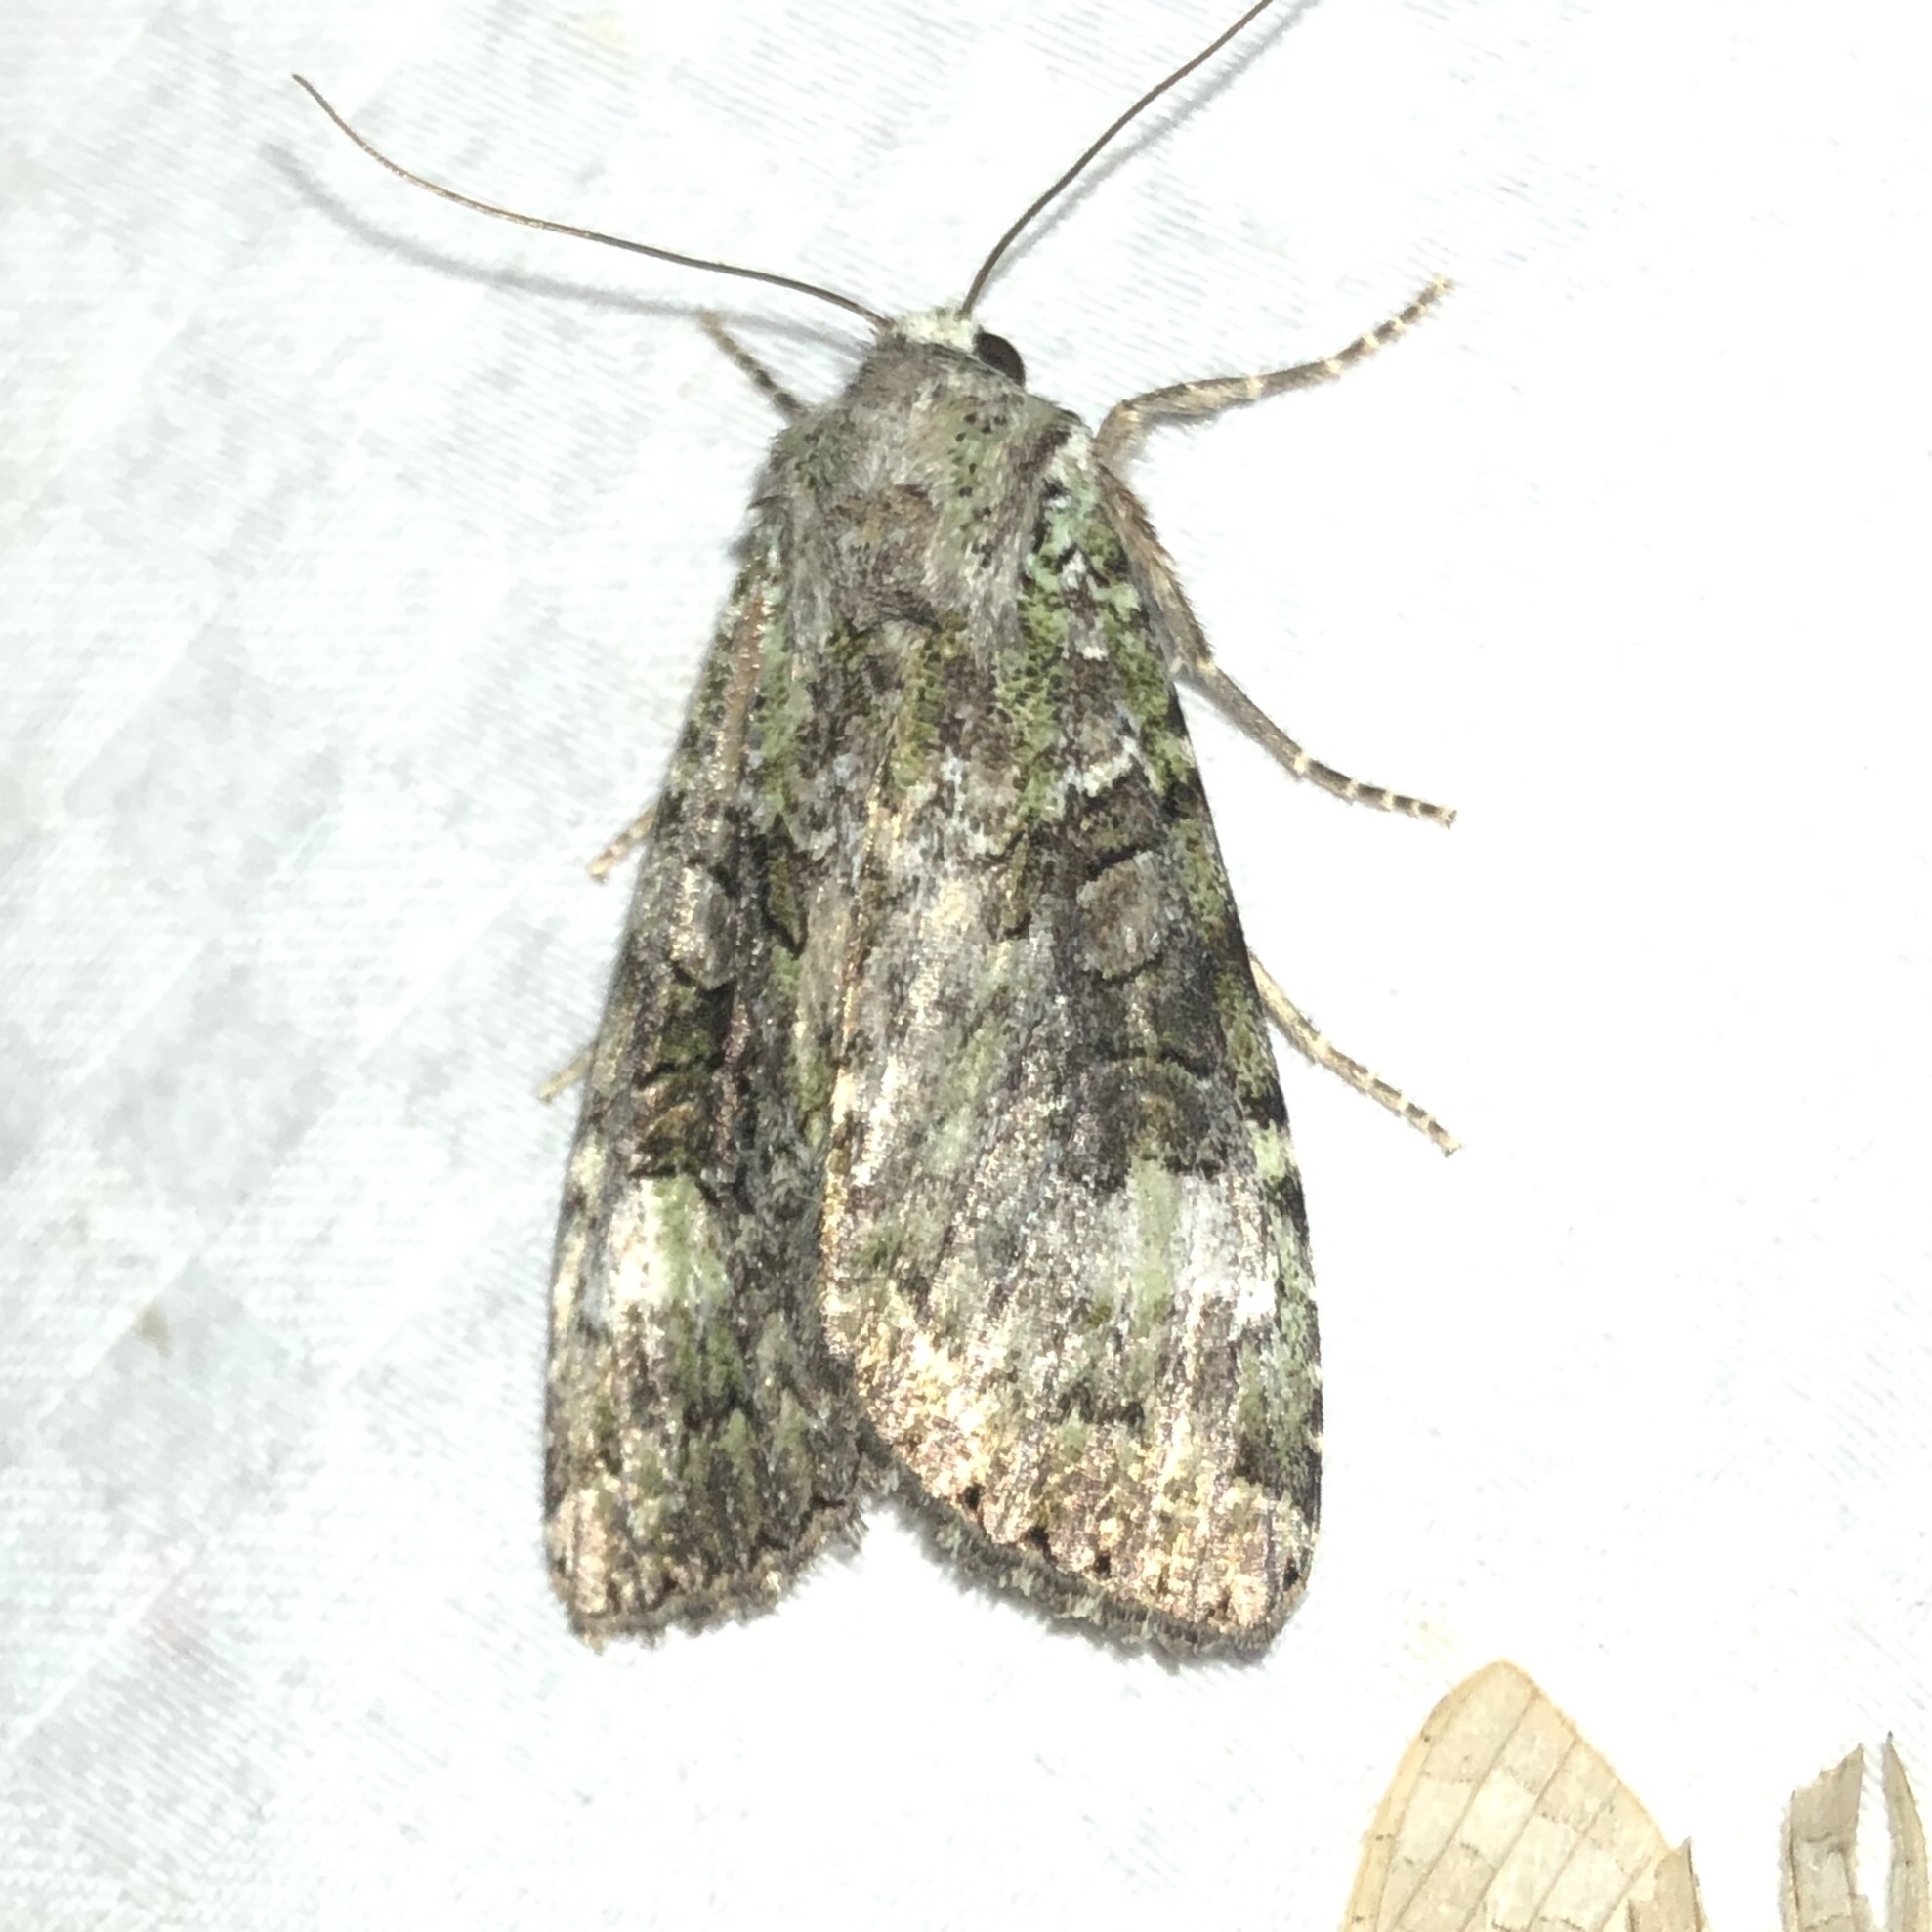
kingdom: Animalia
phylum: Arthropoda
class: Insecta
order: Lepidoptera
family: Noctuidae
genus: Anaplectoides
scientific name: Anaplectoides prasina
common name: Green arches
